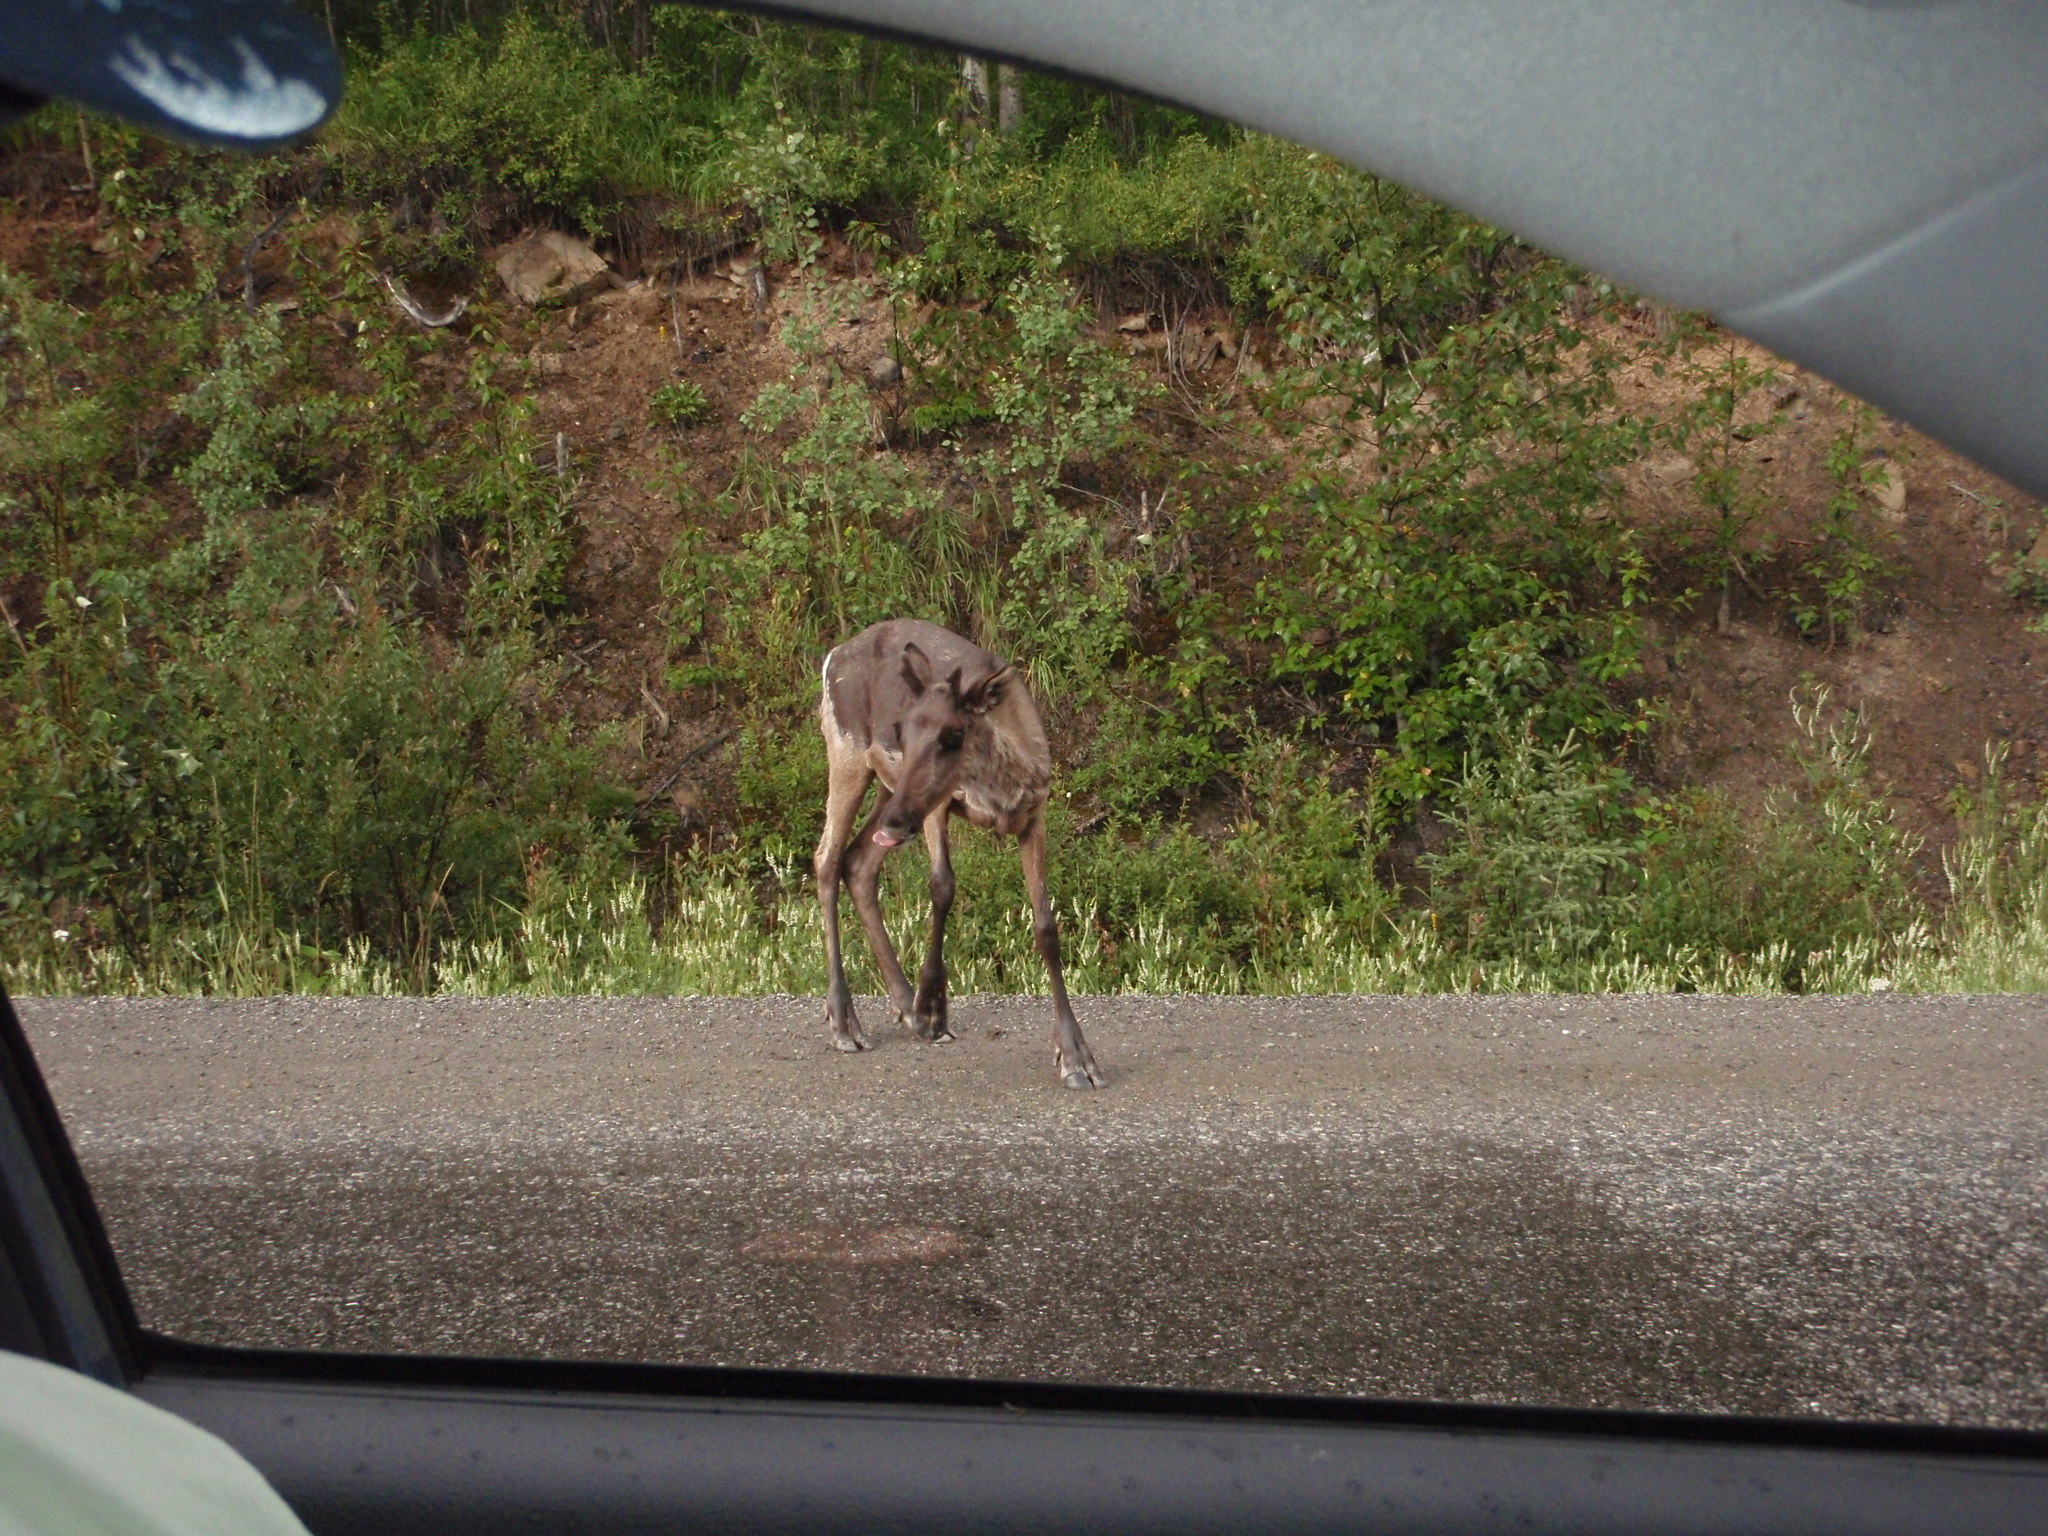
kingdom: Animalia
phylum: Chordata
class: Mammalia
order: Artiodactyla
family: Cervidae
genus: Rangifer
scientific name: Rangifer tarandus
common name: Reindeer
